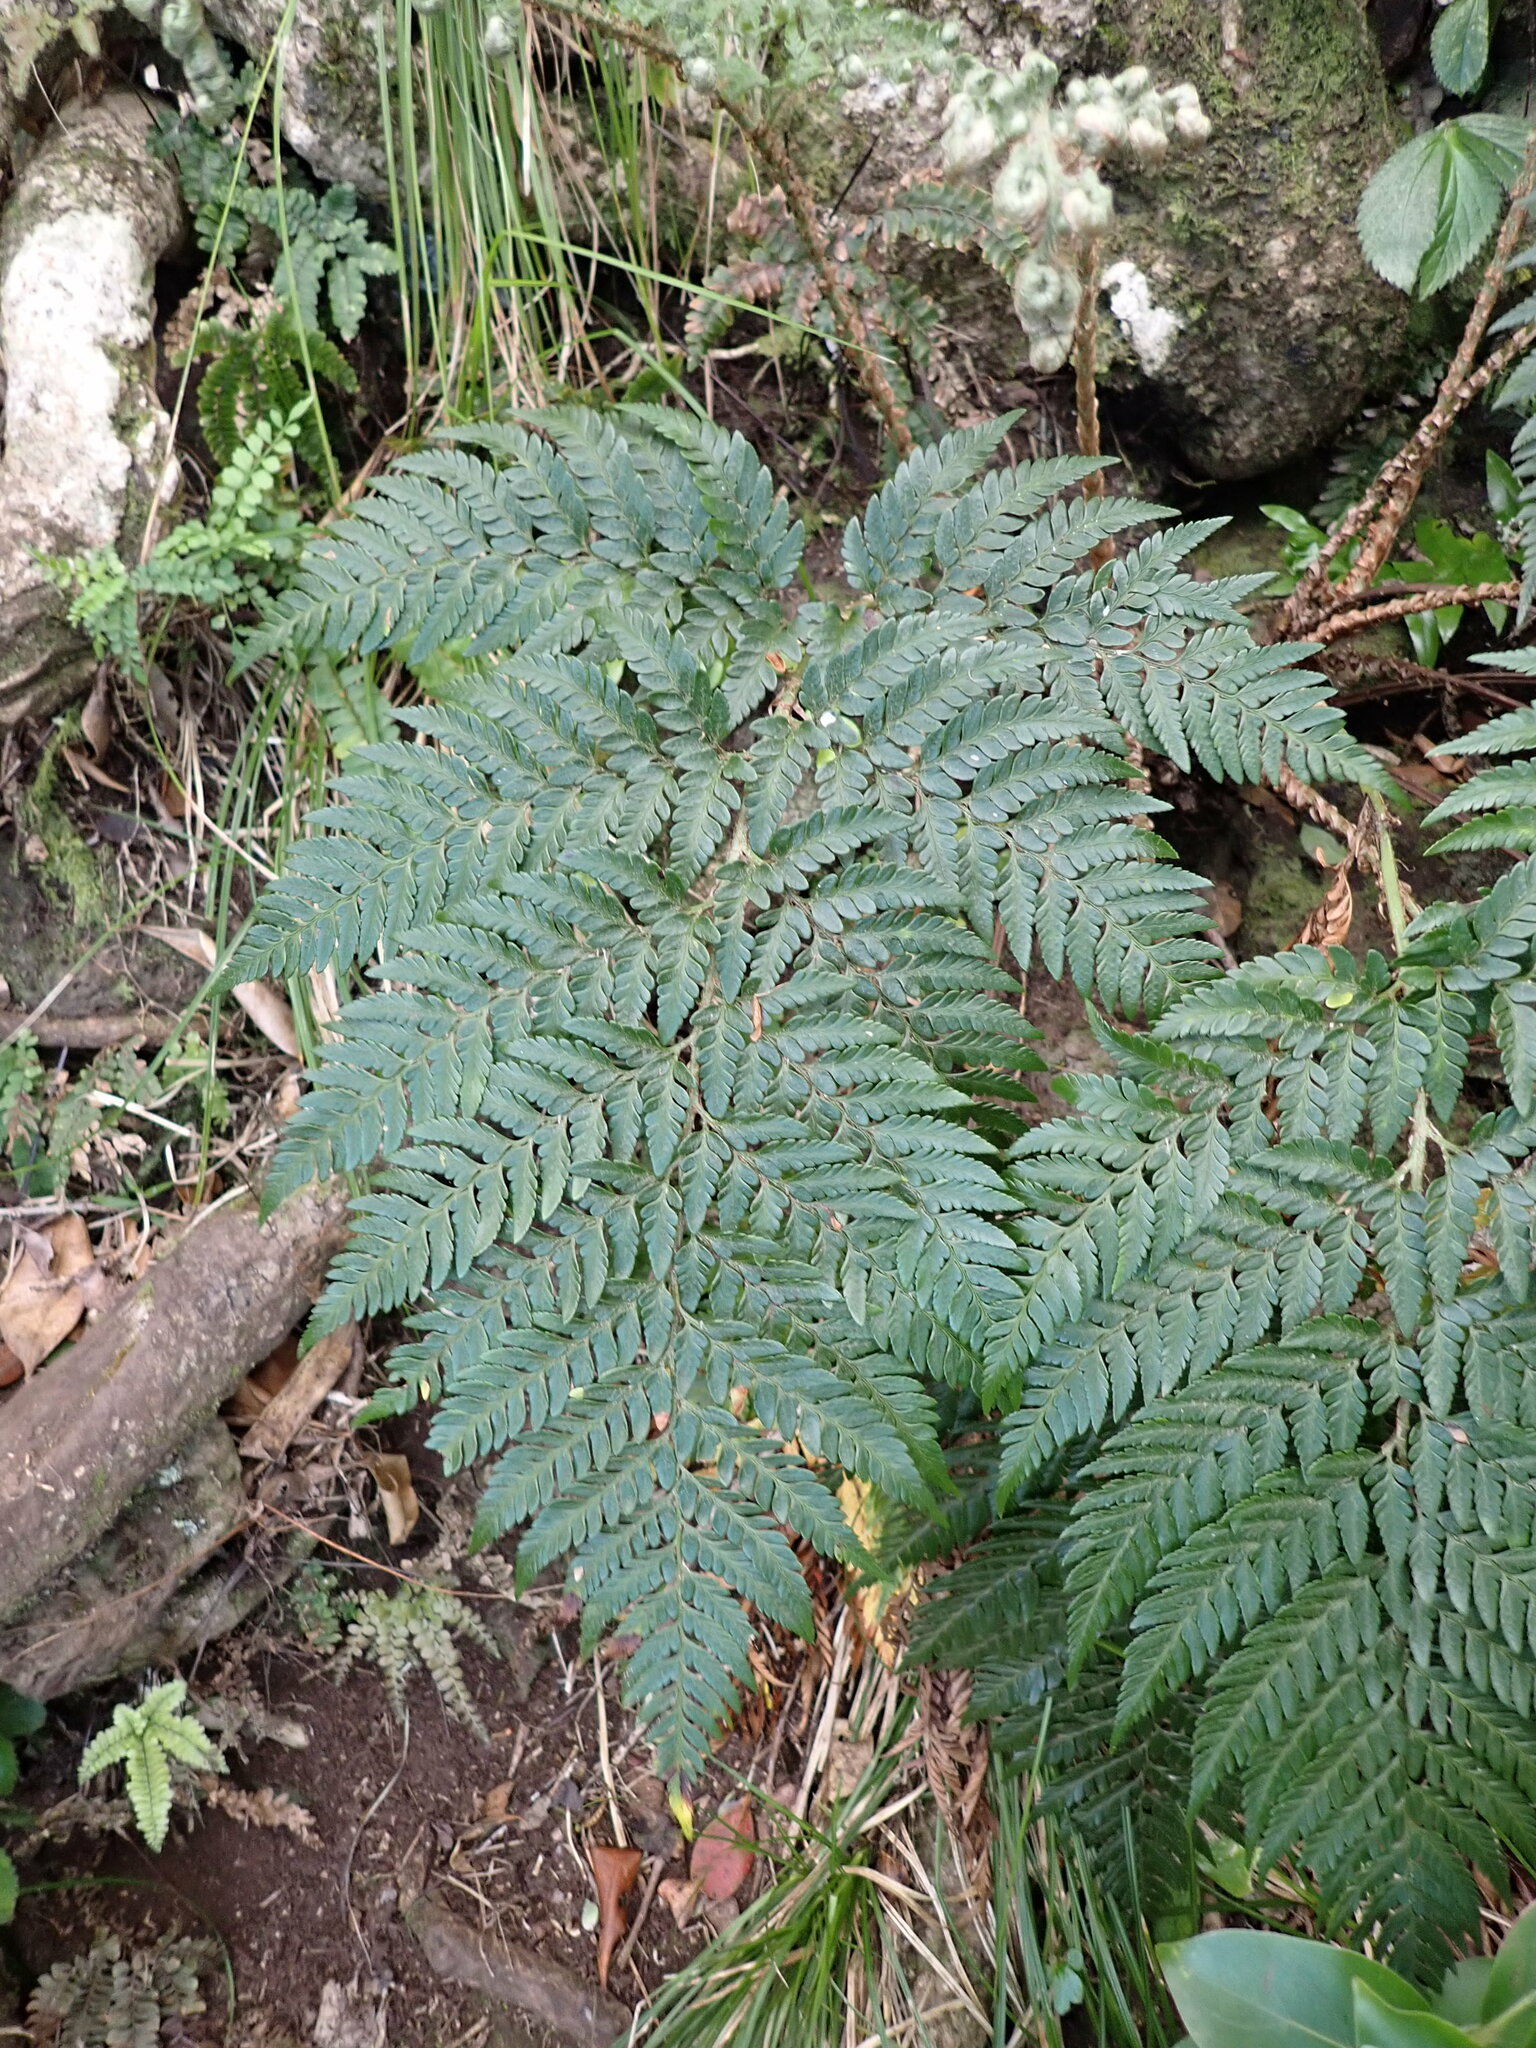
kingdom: Plantae
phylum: Tracheophyta
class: Polypodiopsida
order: Polypodiales
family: Dryopteridaceae
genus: Polystichum
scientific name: Polystichum whiteleggei
